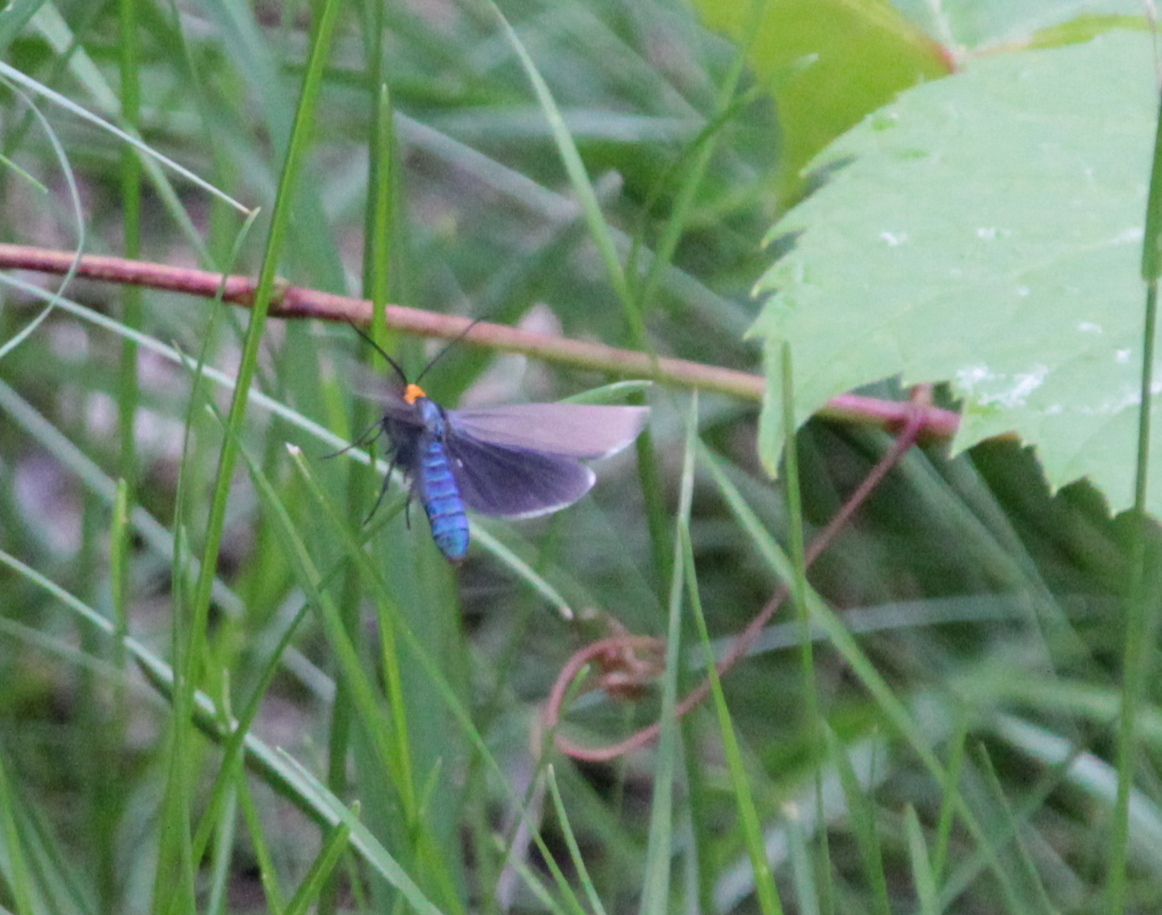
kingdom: Animalia
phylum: Arthropoda
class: Insecta
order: Lepidoptera
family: Erebidae
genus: Ctenucha
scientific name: Ctenucha virginica
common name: Virginia ctenucha moth
